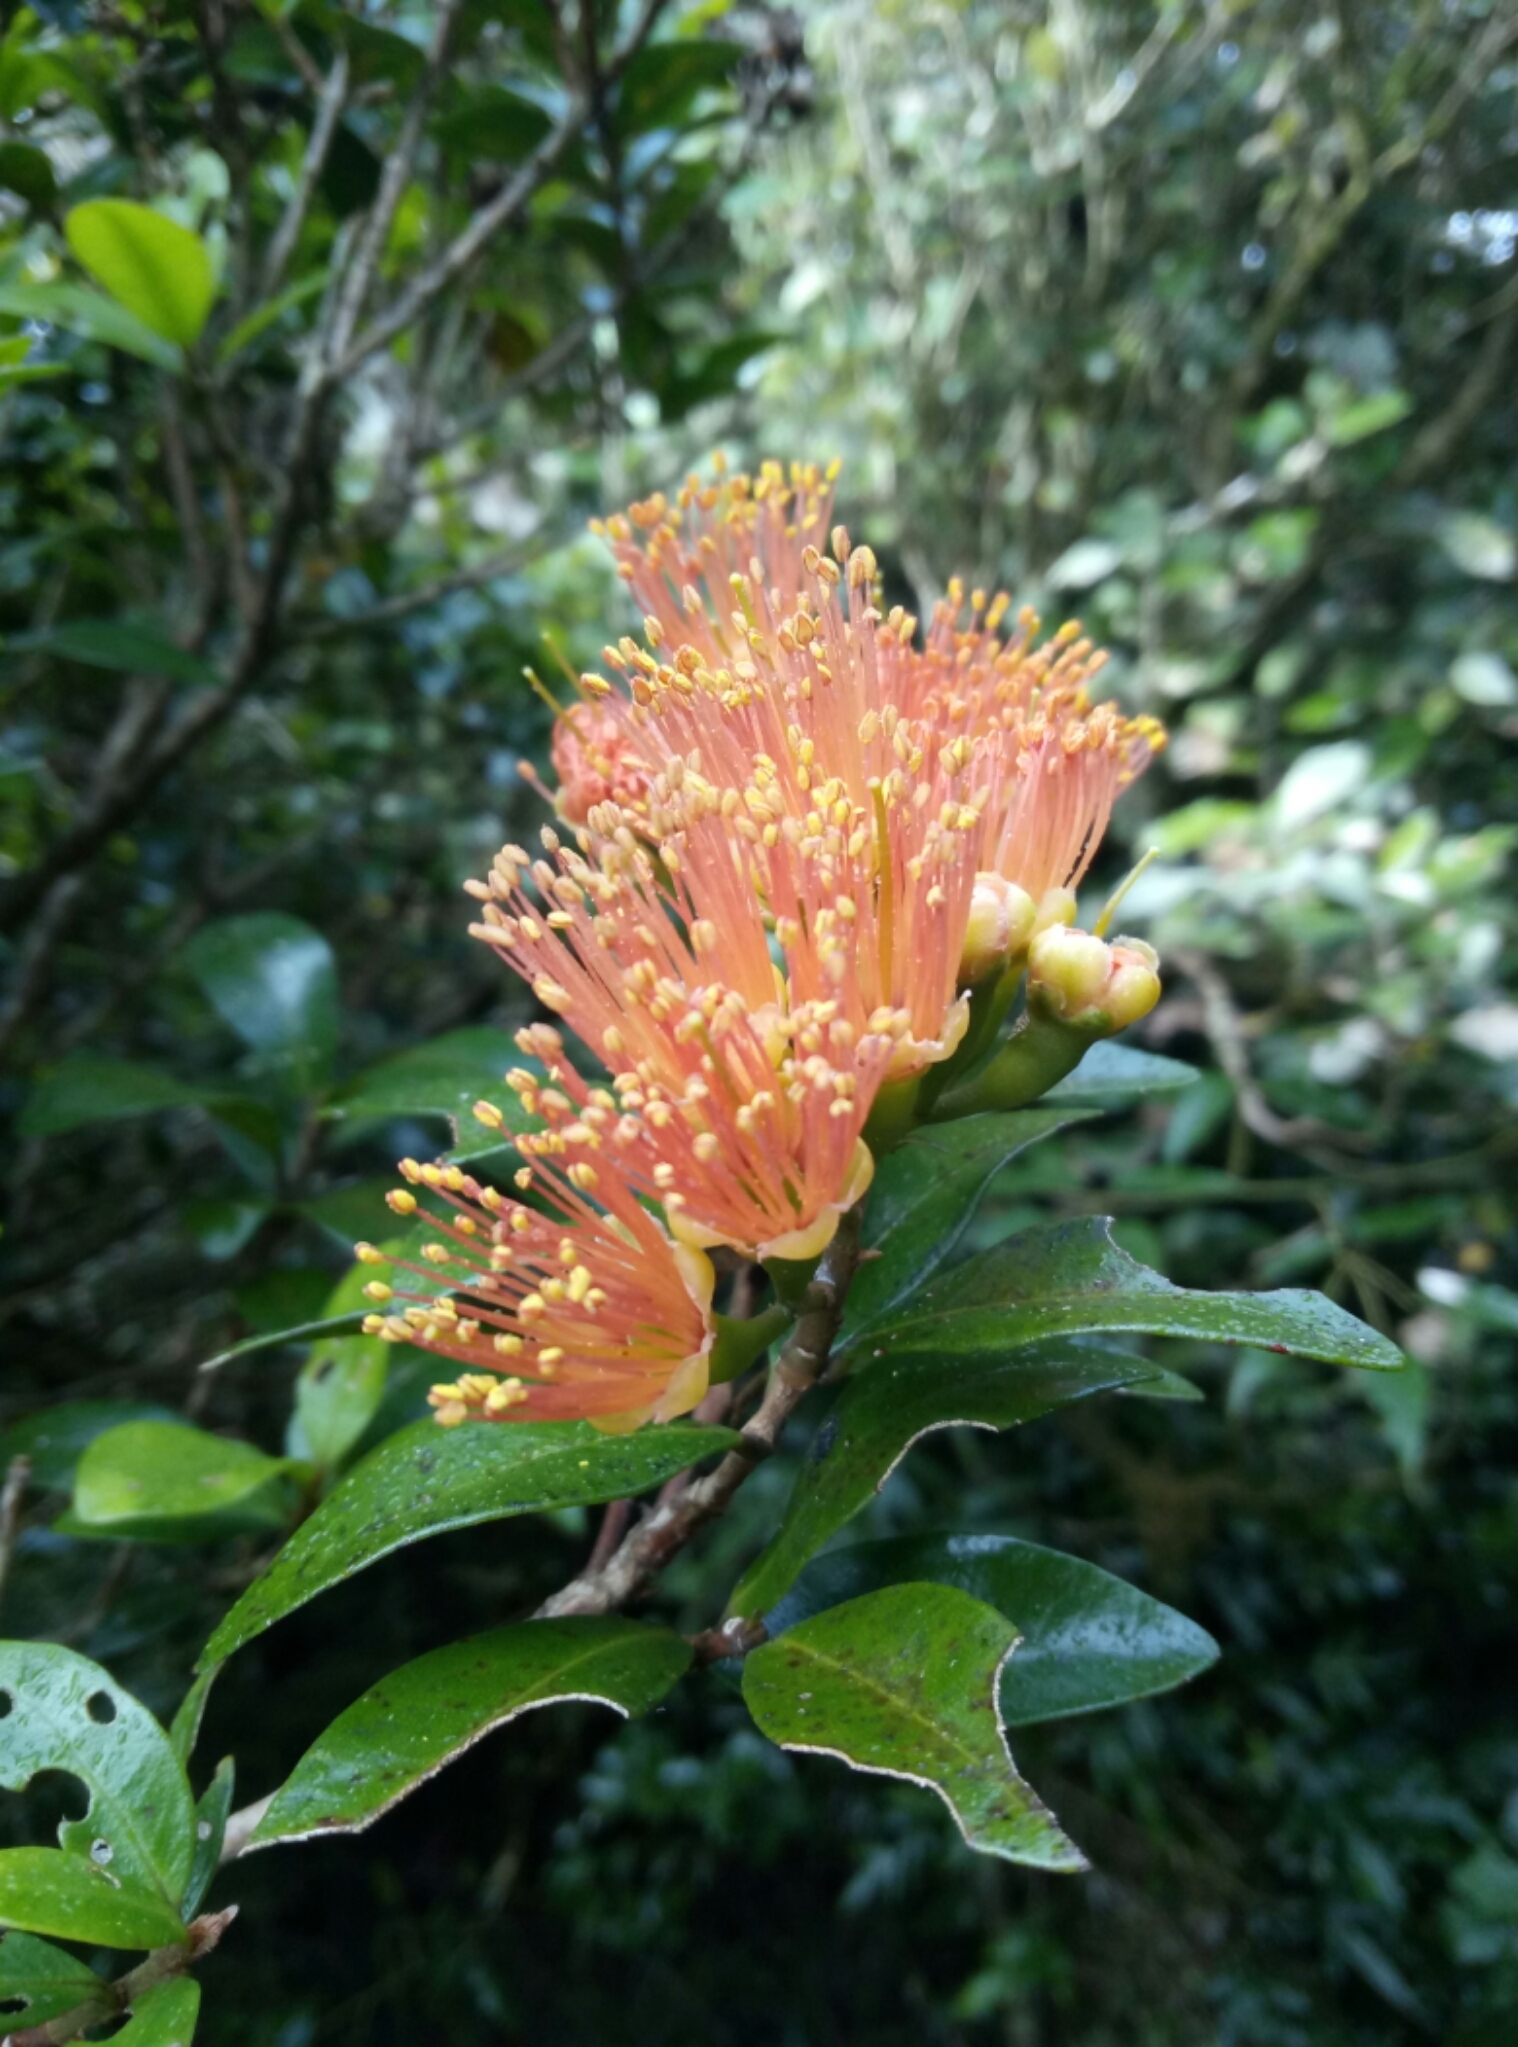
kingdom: Plantae
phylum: Tracheophyta
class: Magnoliopsida
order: Myrtales
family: Myrtaceae
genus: Metrosideros
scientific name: Metrosideros fulgens
